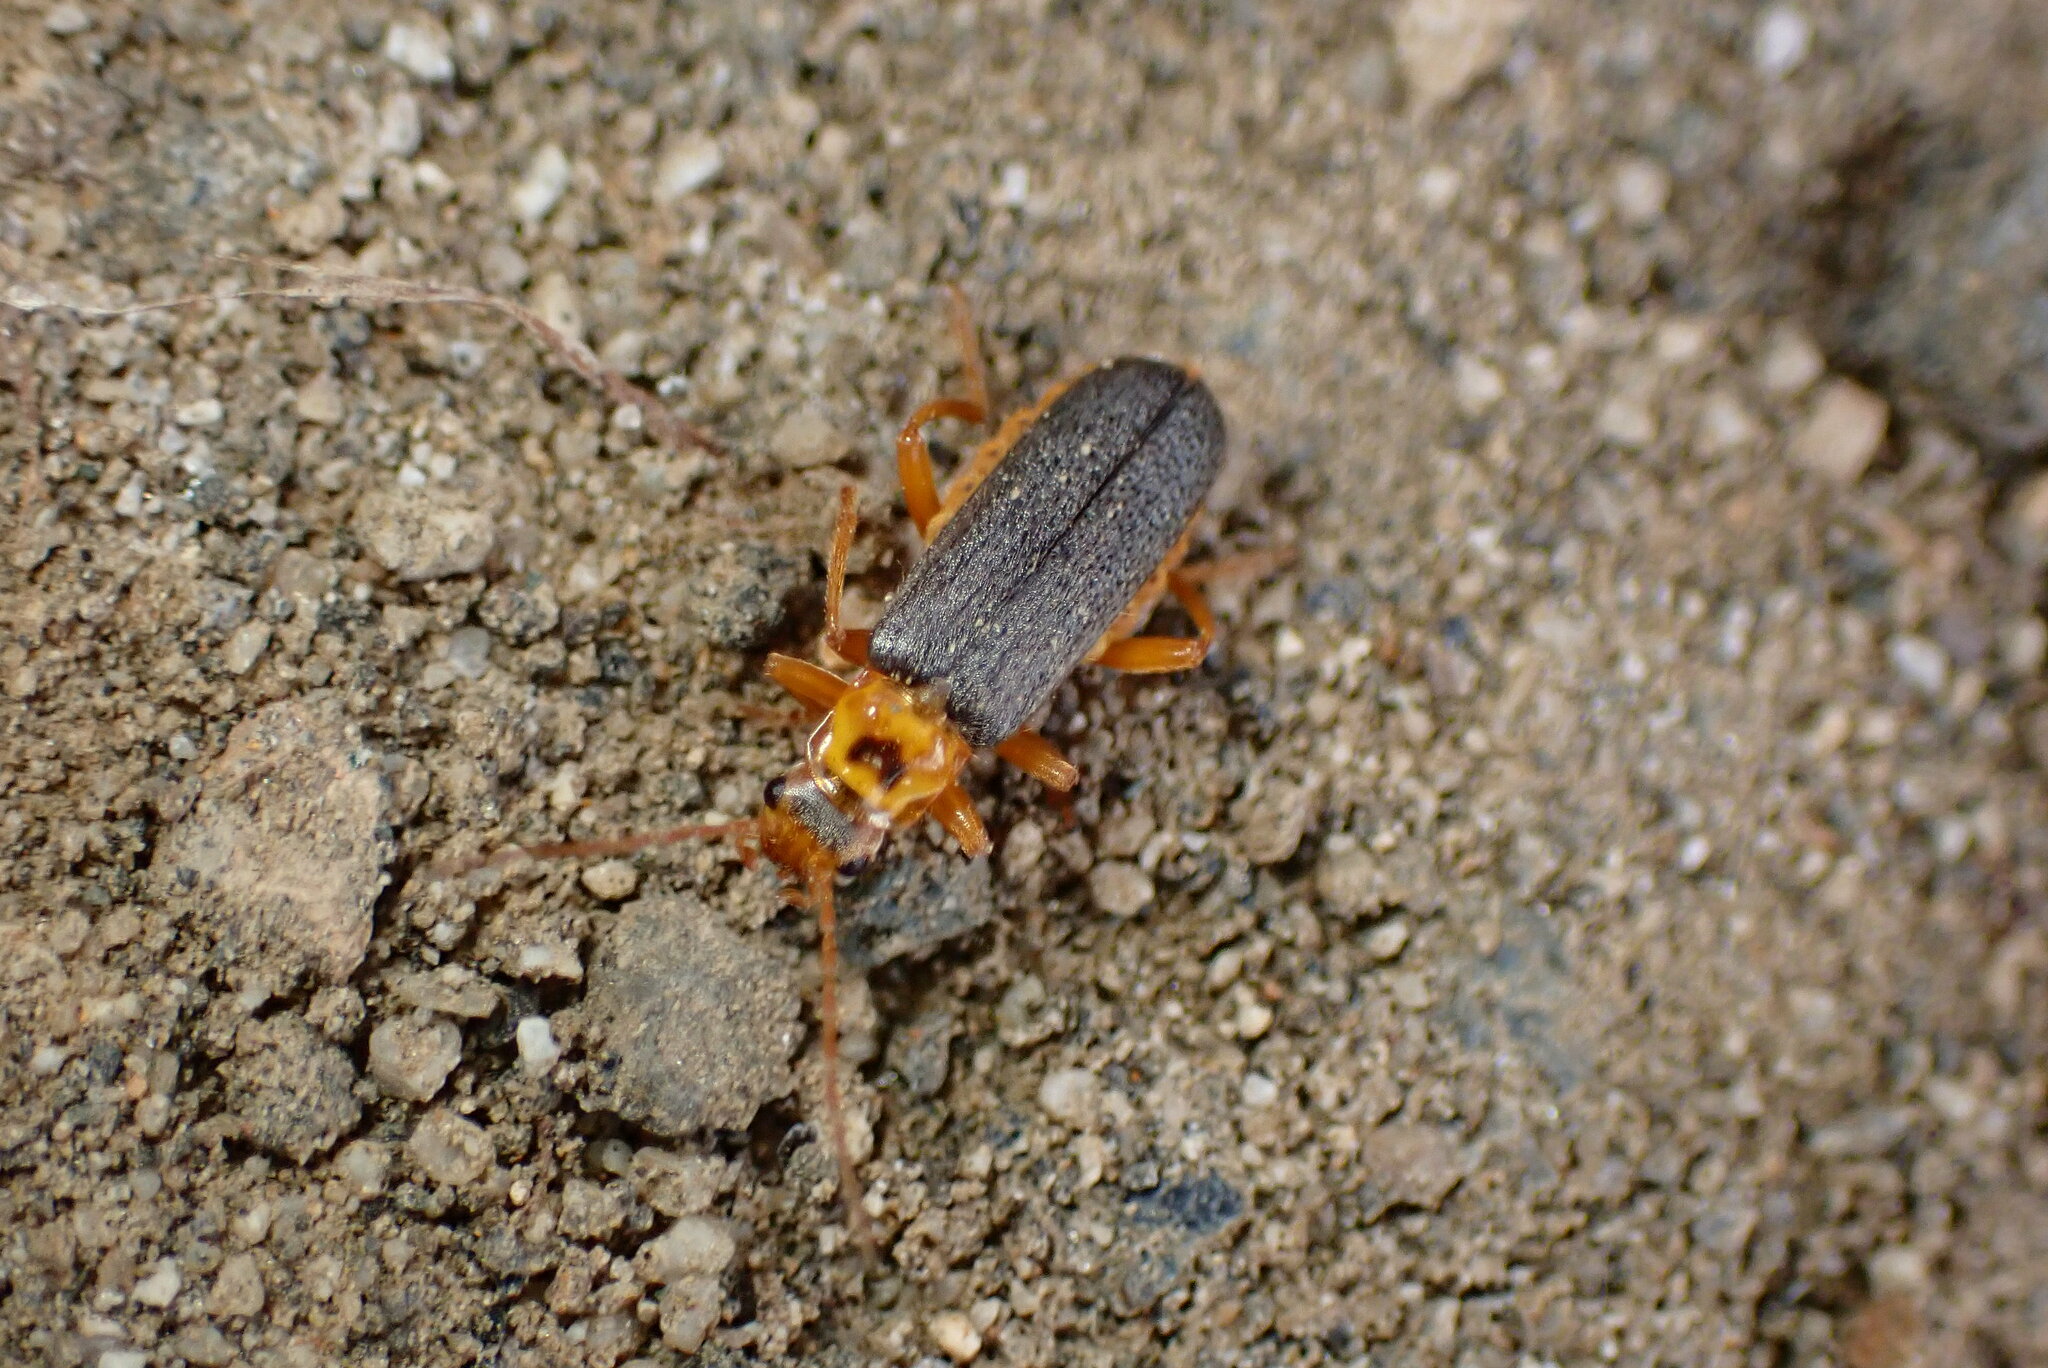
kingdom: Animalia
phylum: Arthropoda
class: Insecta
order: Coleoptera
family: Cantharidae
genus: Cultellunguis
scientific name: Cultellunguis americanus
